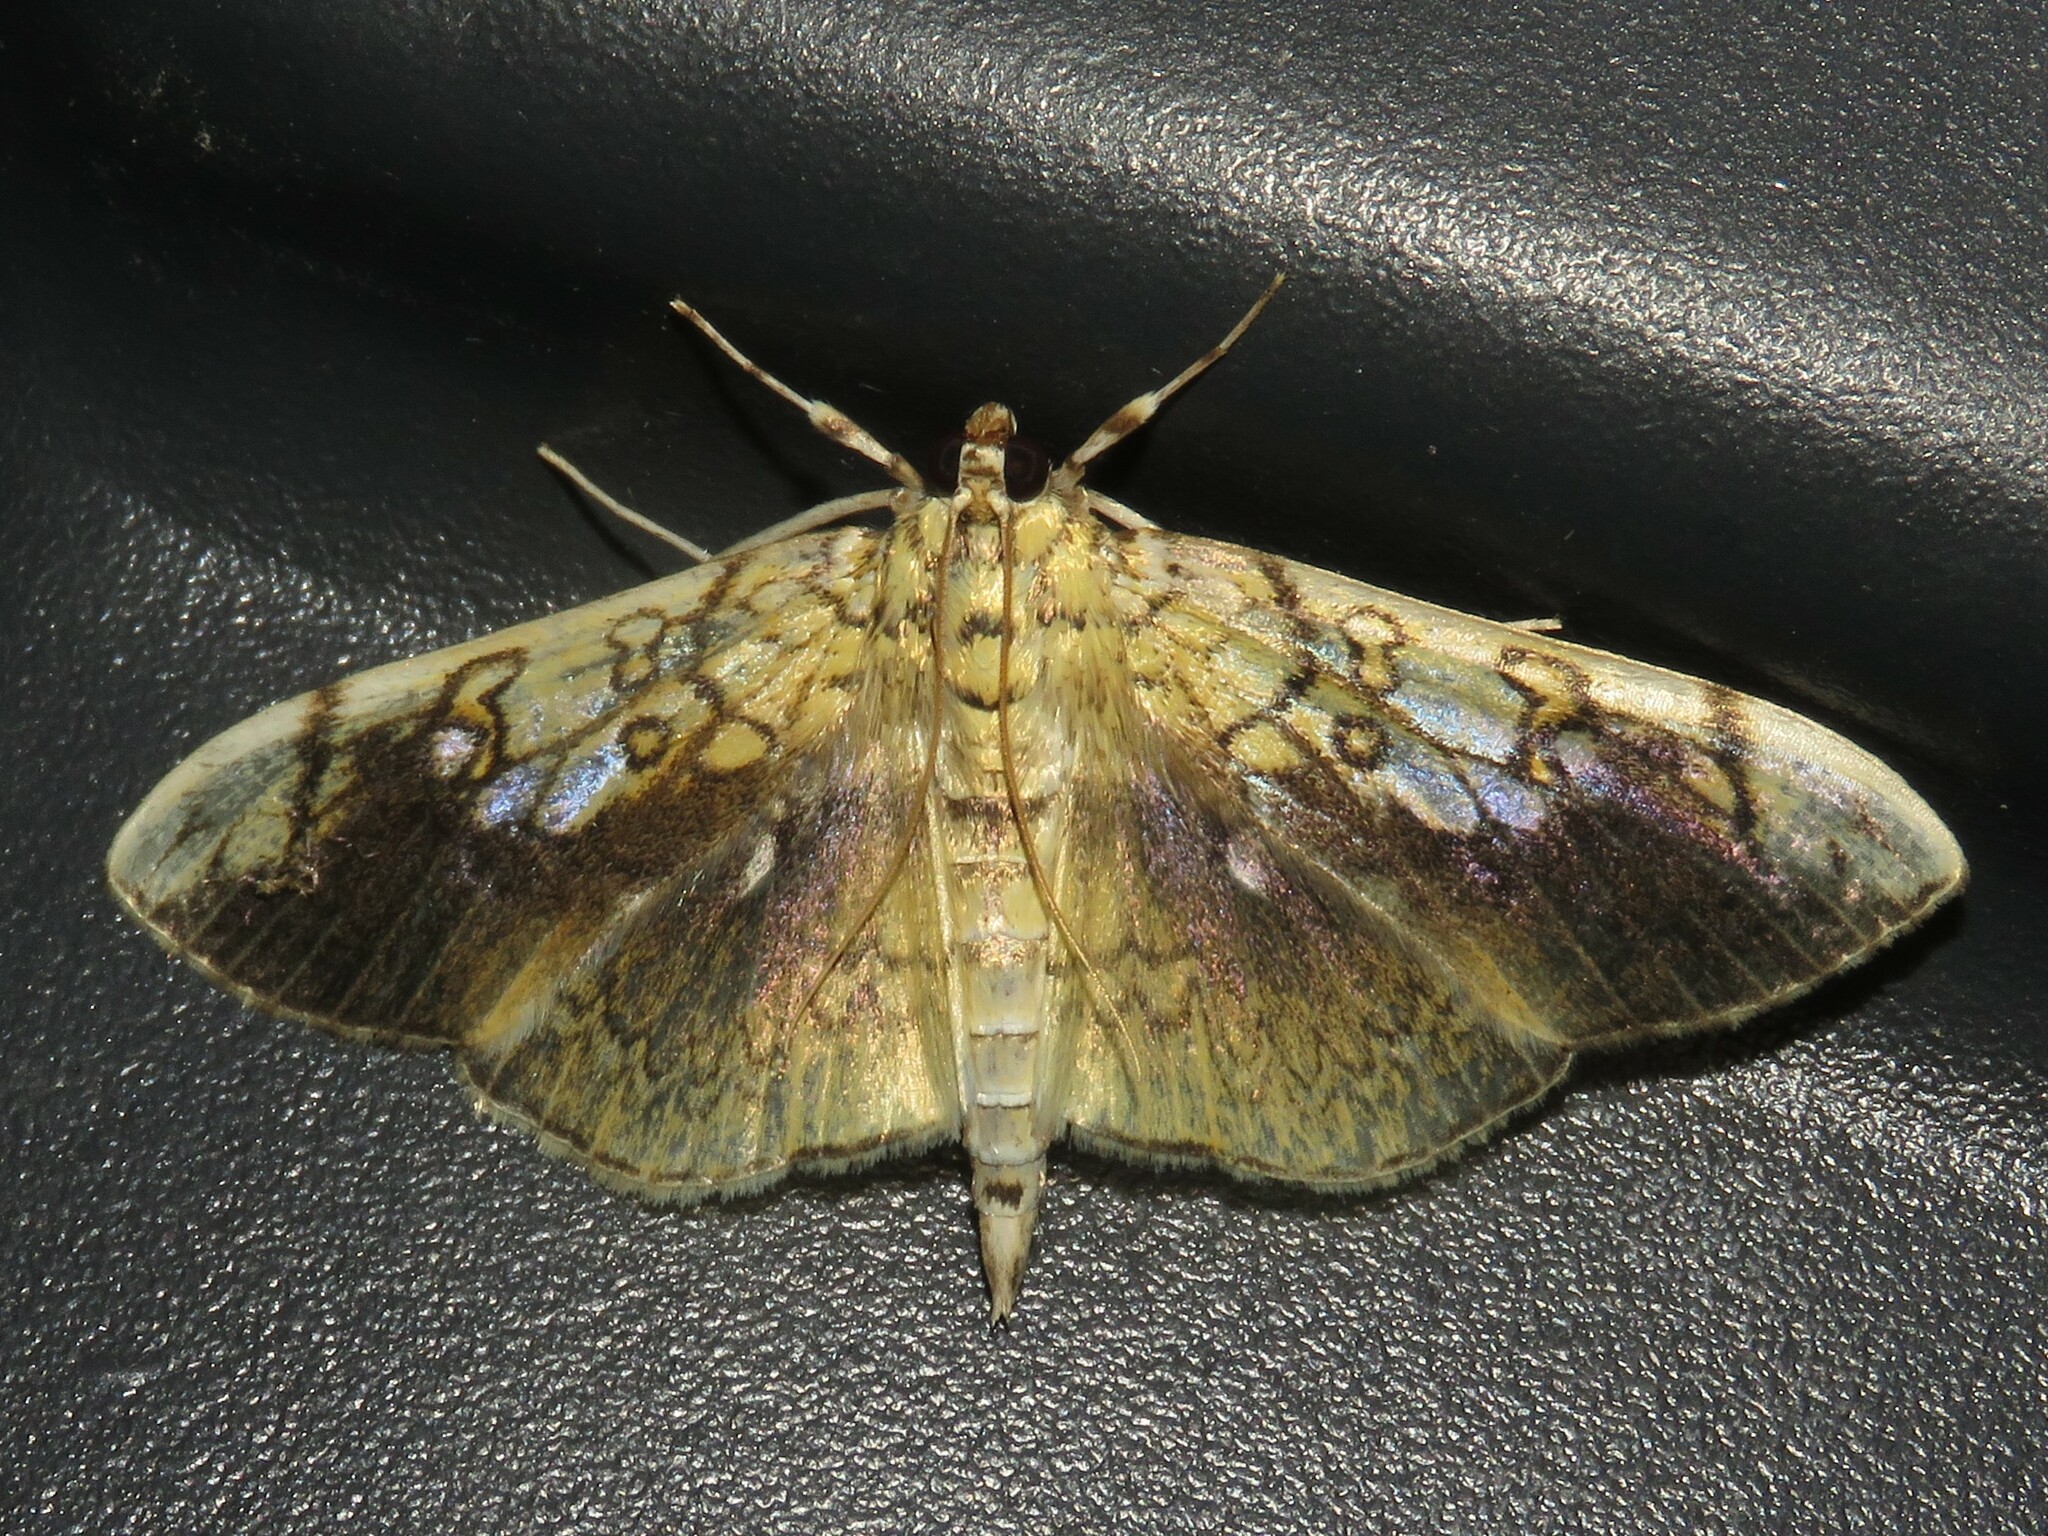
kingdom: Animalia
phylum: Arthropoda
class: Insecta
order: Lepidoptera
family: Crambidae
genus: Pantographa
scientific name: Pantographa limata
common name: Basswood leafroller moth
